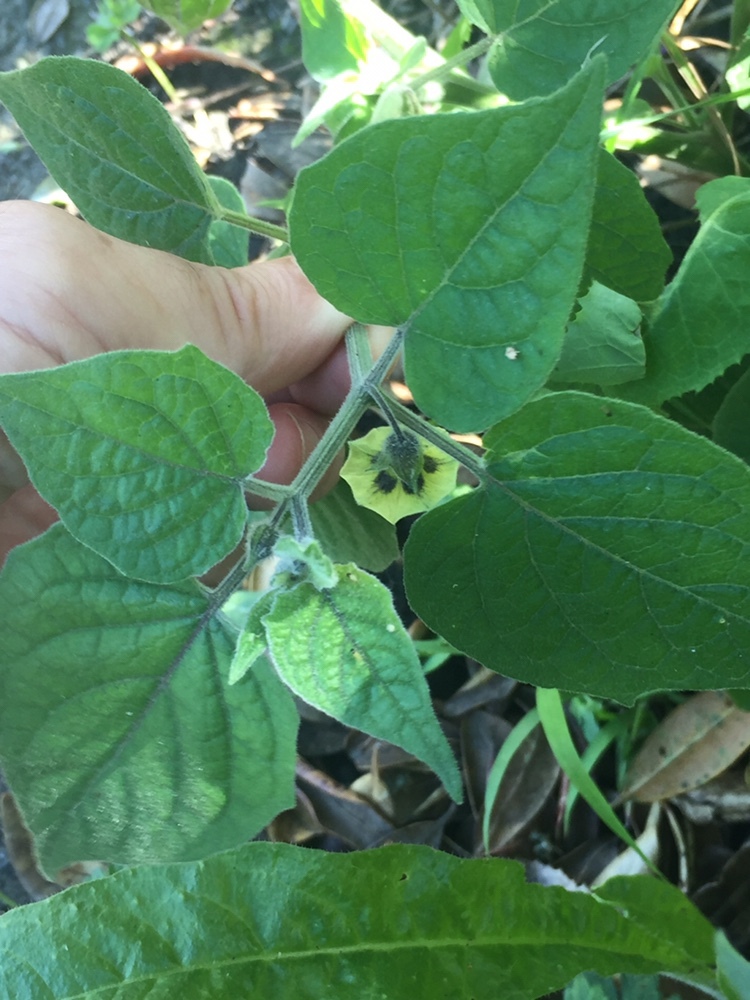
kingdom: Plantae
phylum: Tracheophyta
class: Magnoliopsida
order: Solanales
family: Solanaceae
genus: Physalis
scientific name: Physalis peruviana
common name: Cape-gooseberry
